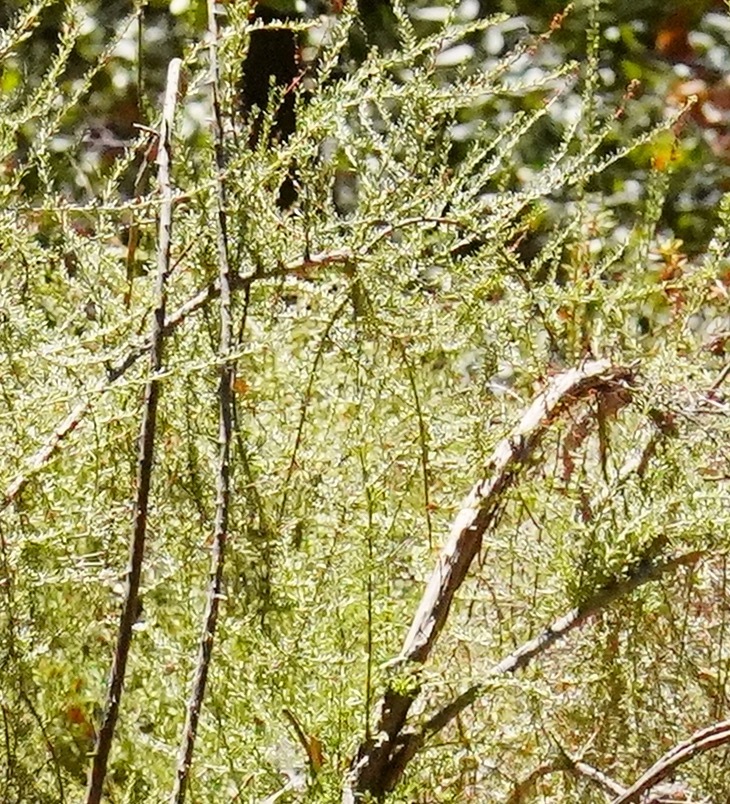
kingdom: Plantae
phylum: Tracheophyta
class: Magnoliopsida
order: Rosales
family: Rosaceae
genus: Adenostoma
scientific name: Adenostoma fasciculatum
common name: Chamise
